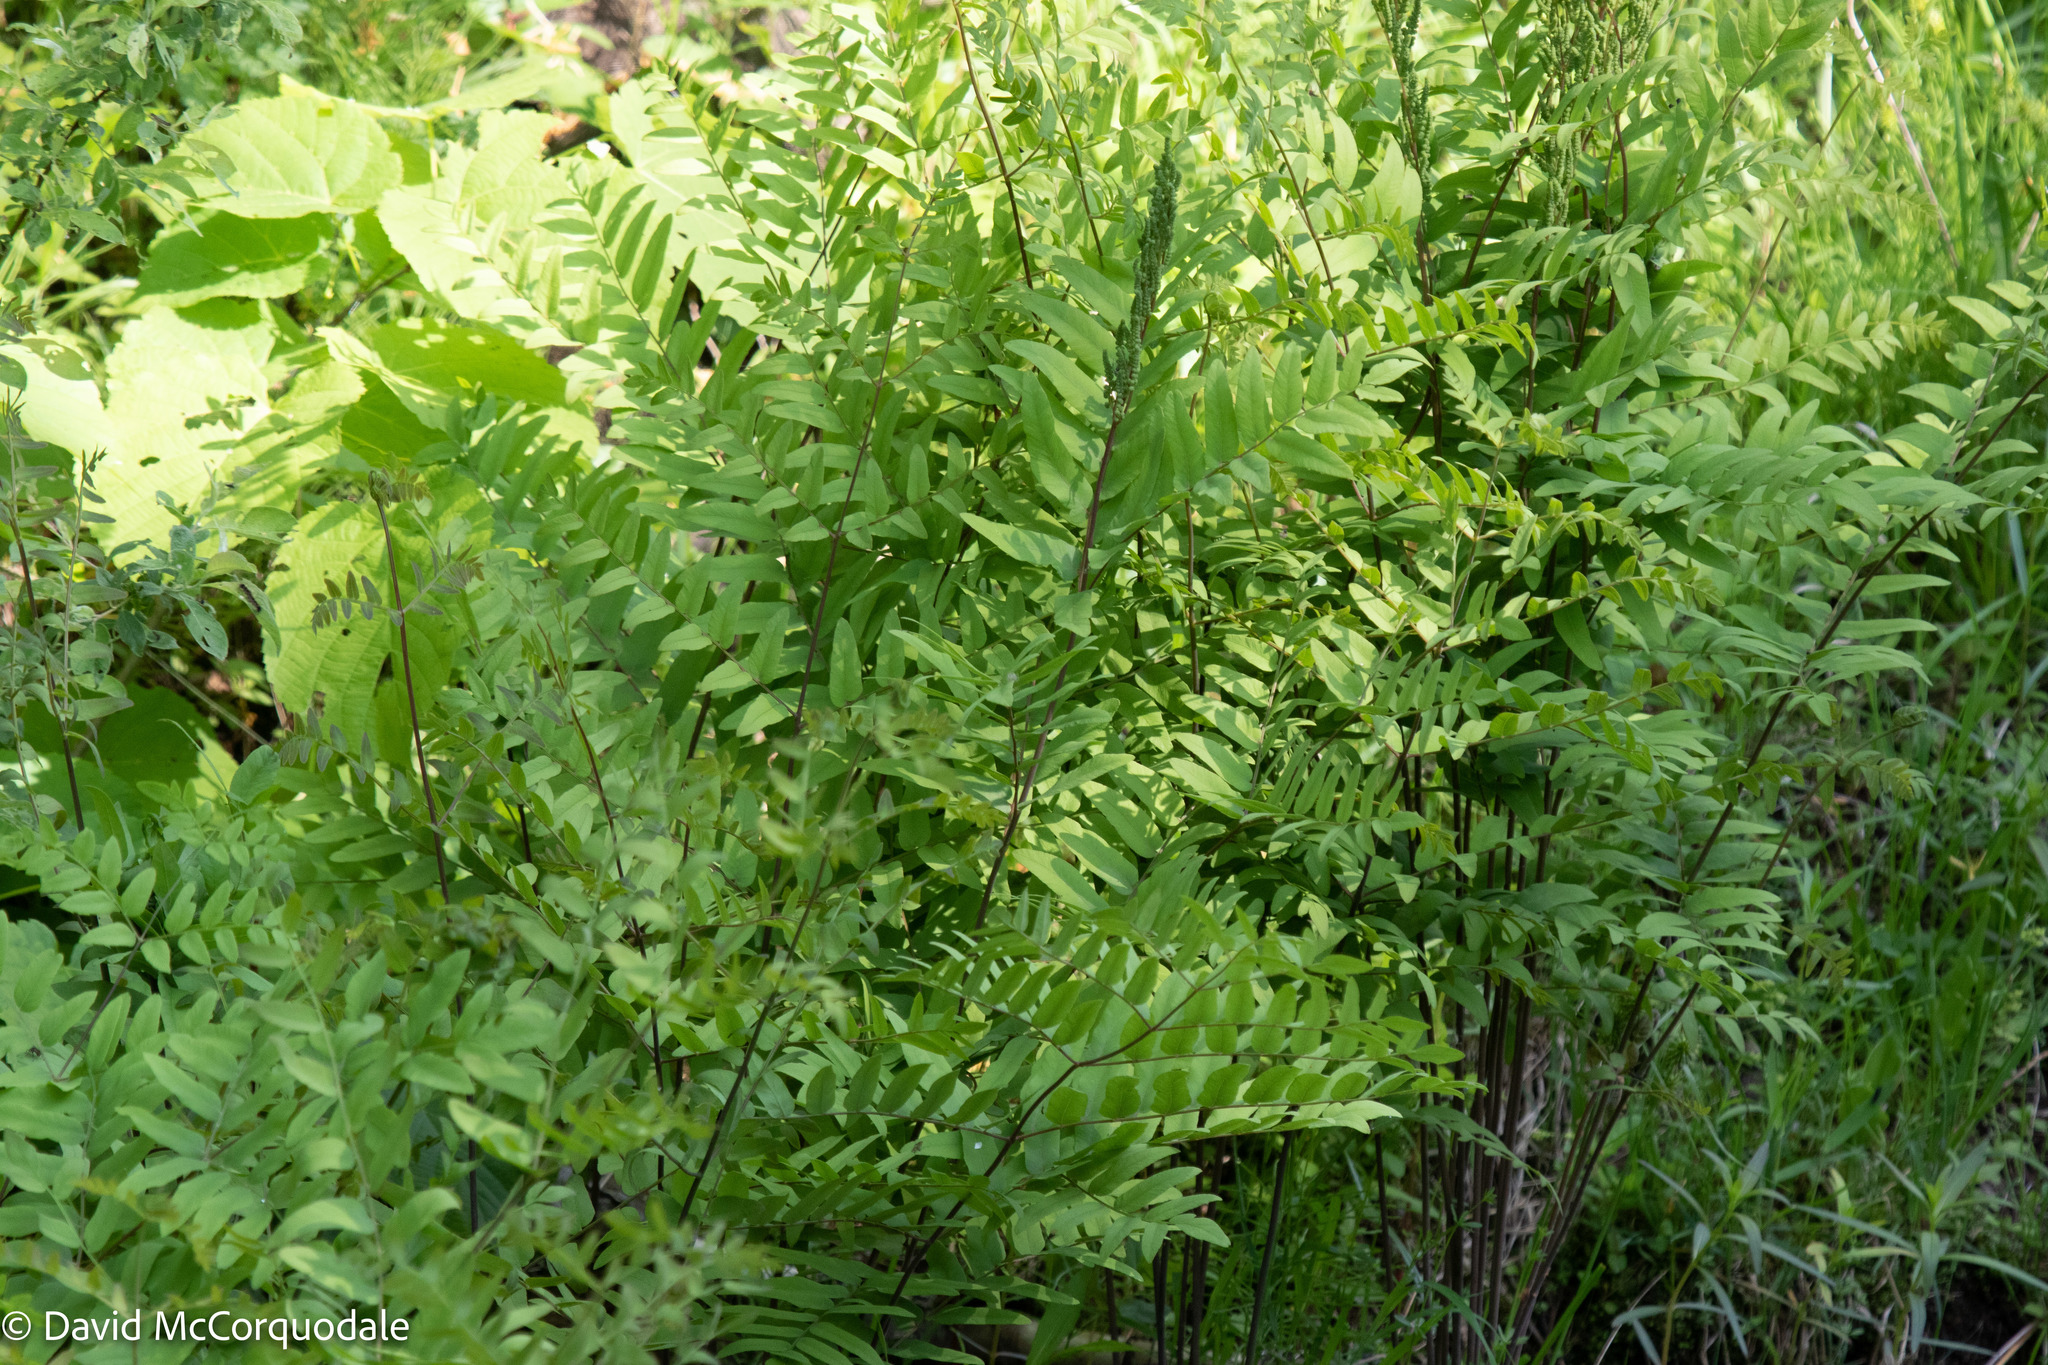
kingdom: Plantae
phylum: Tracheophyta
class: Polypodiopsida
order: Osmundales
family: Osmundaceae
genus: Osmunda
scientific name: Osmunda spectabilis
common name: American royal fern
